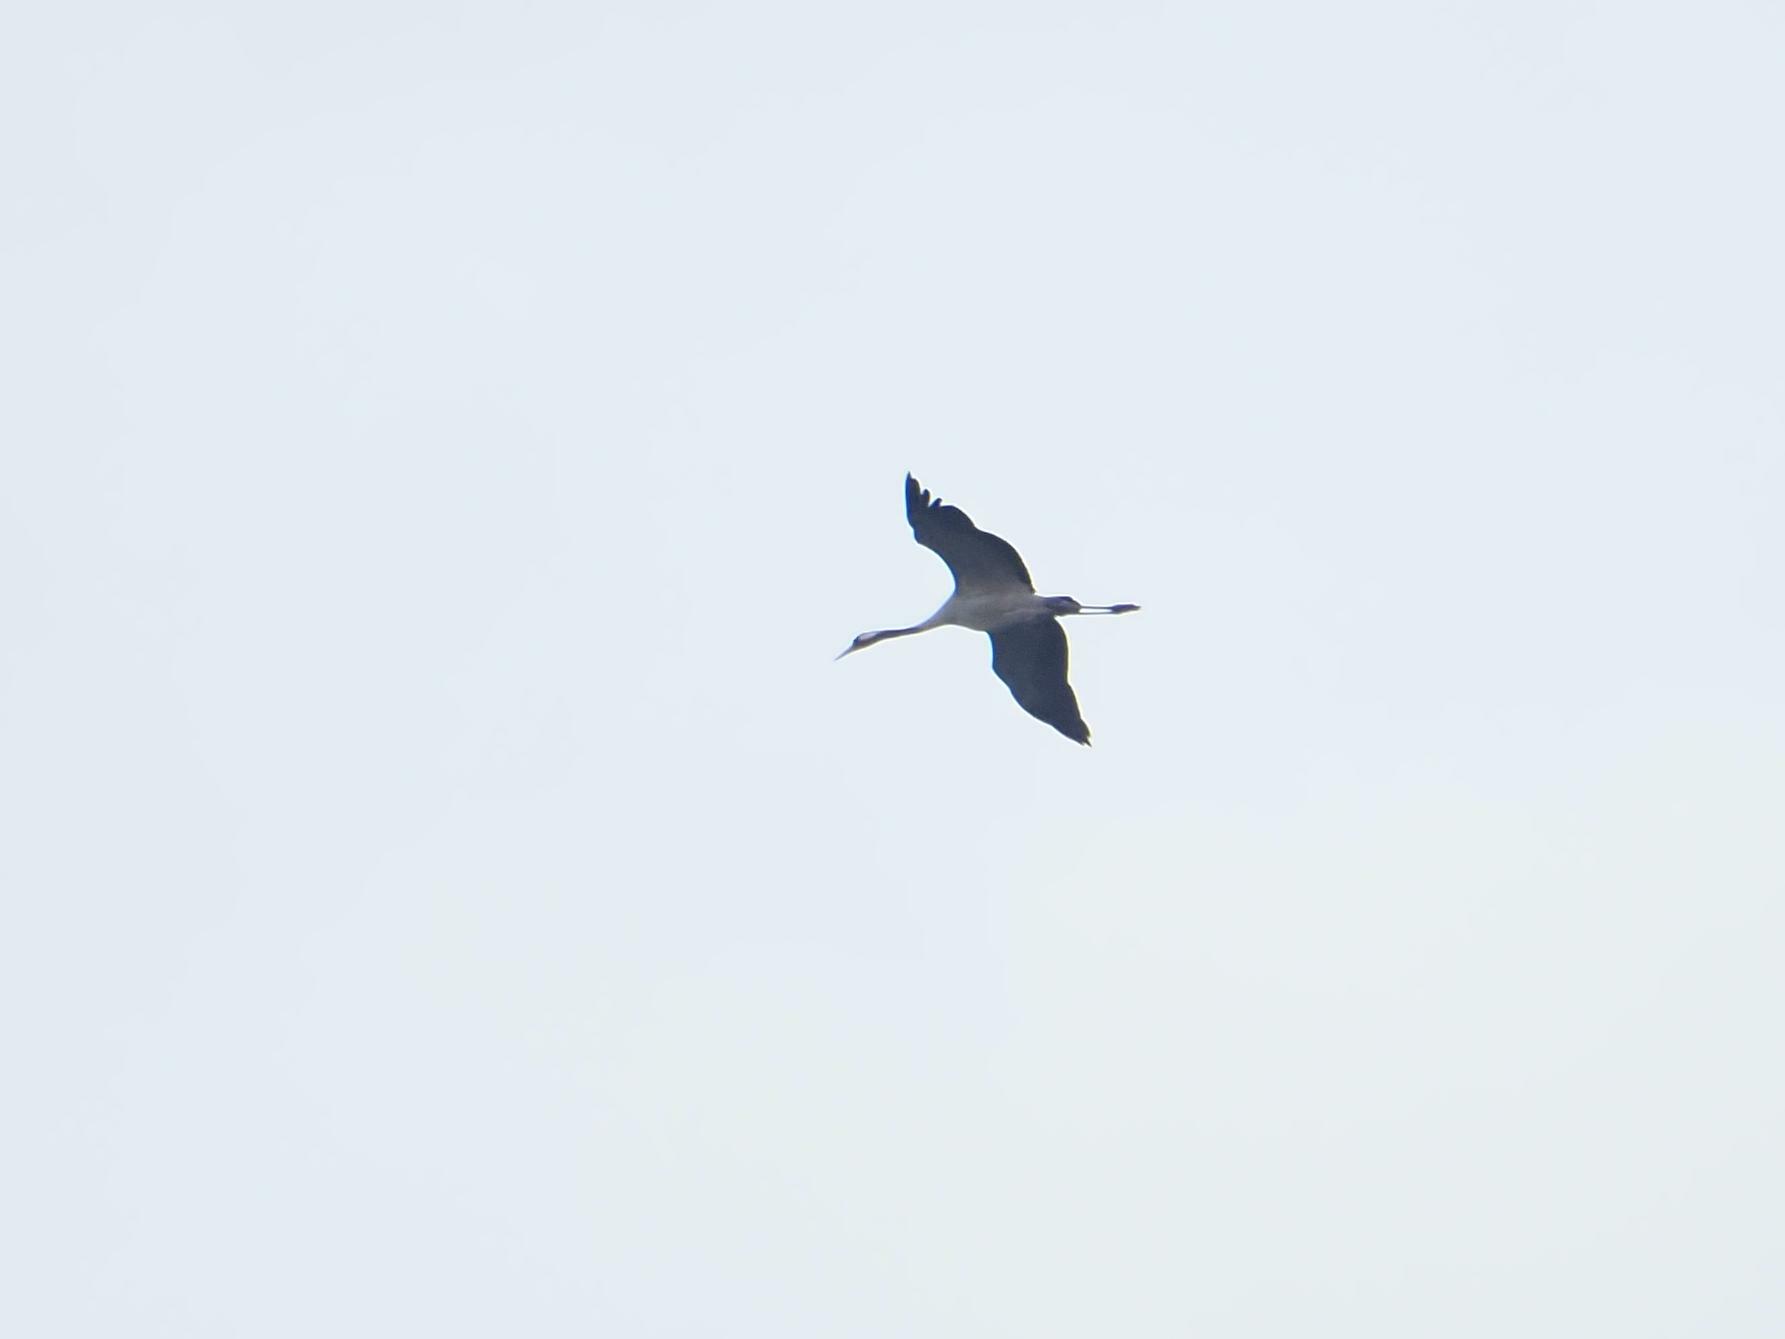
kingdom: Animalia
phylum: Chordata
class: Aves
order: Gruiformes
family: Gruidae
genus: Grus
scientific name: Grus grus
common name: Common crane
